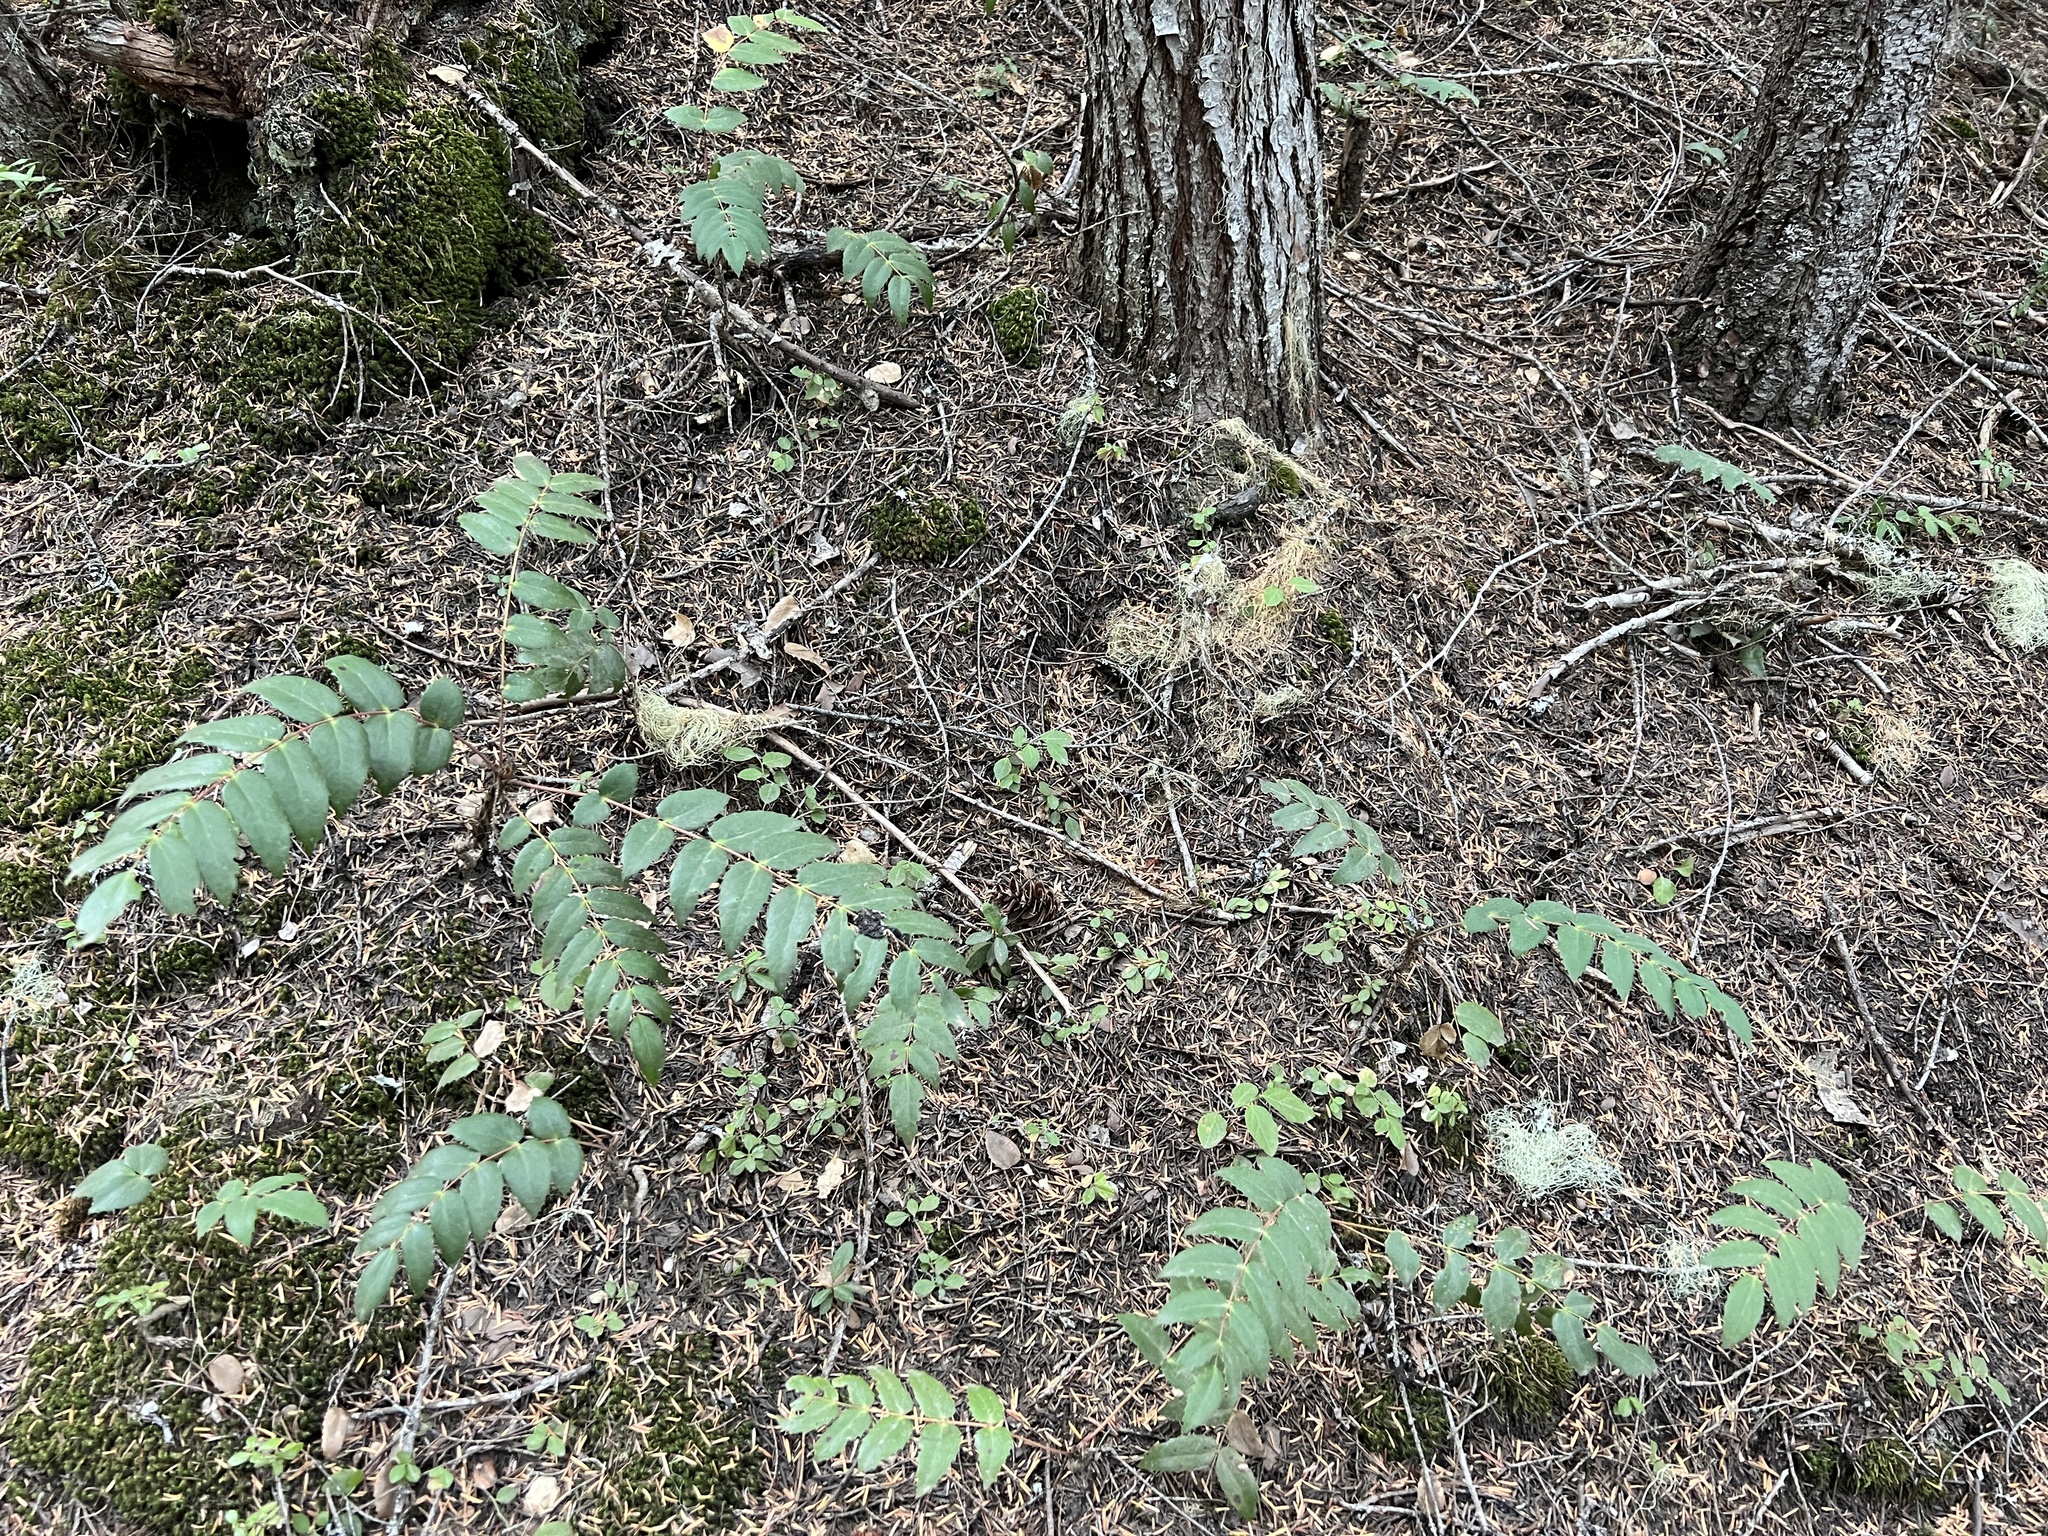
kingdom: Plantae
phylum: Tracheophyta
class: Magnoliopsida
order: Ranunculales
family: Berberidaceae
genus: Mahonia
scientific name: Mahonia nervosa
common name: Cascade oregon-grape
